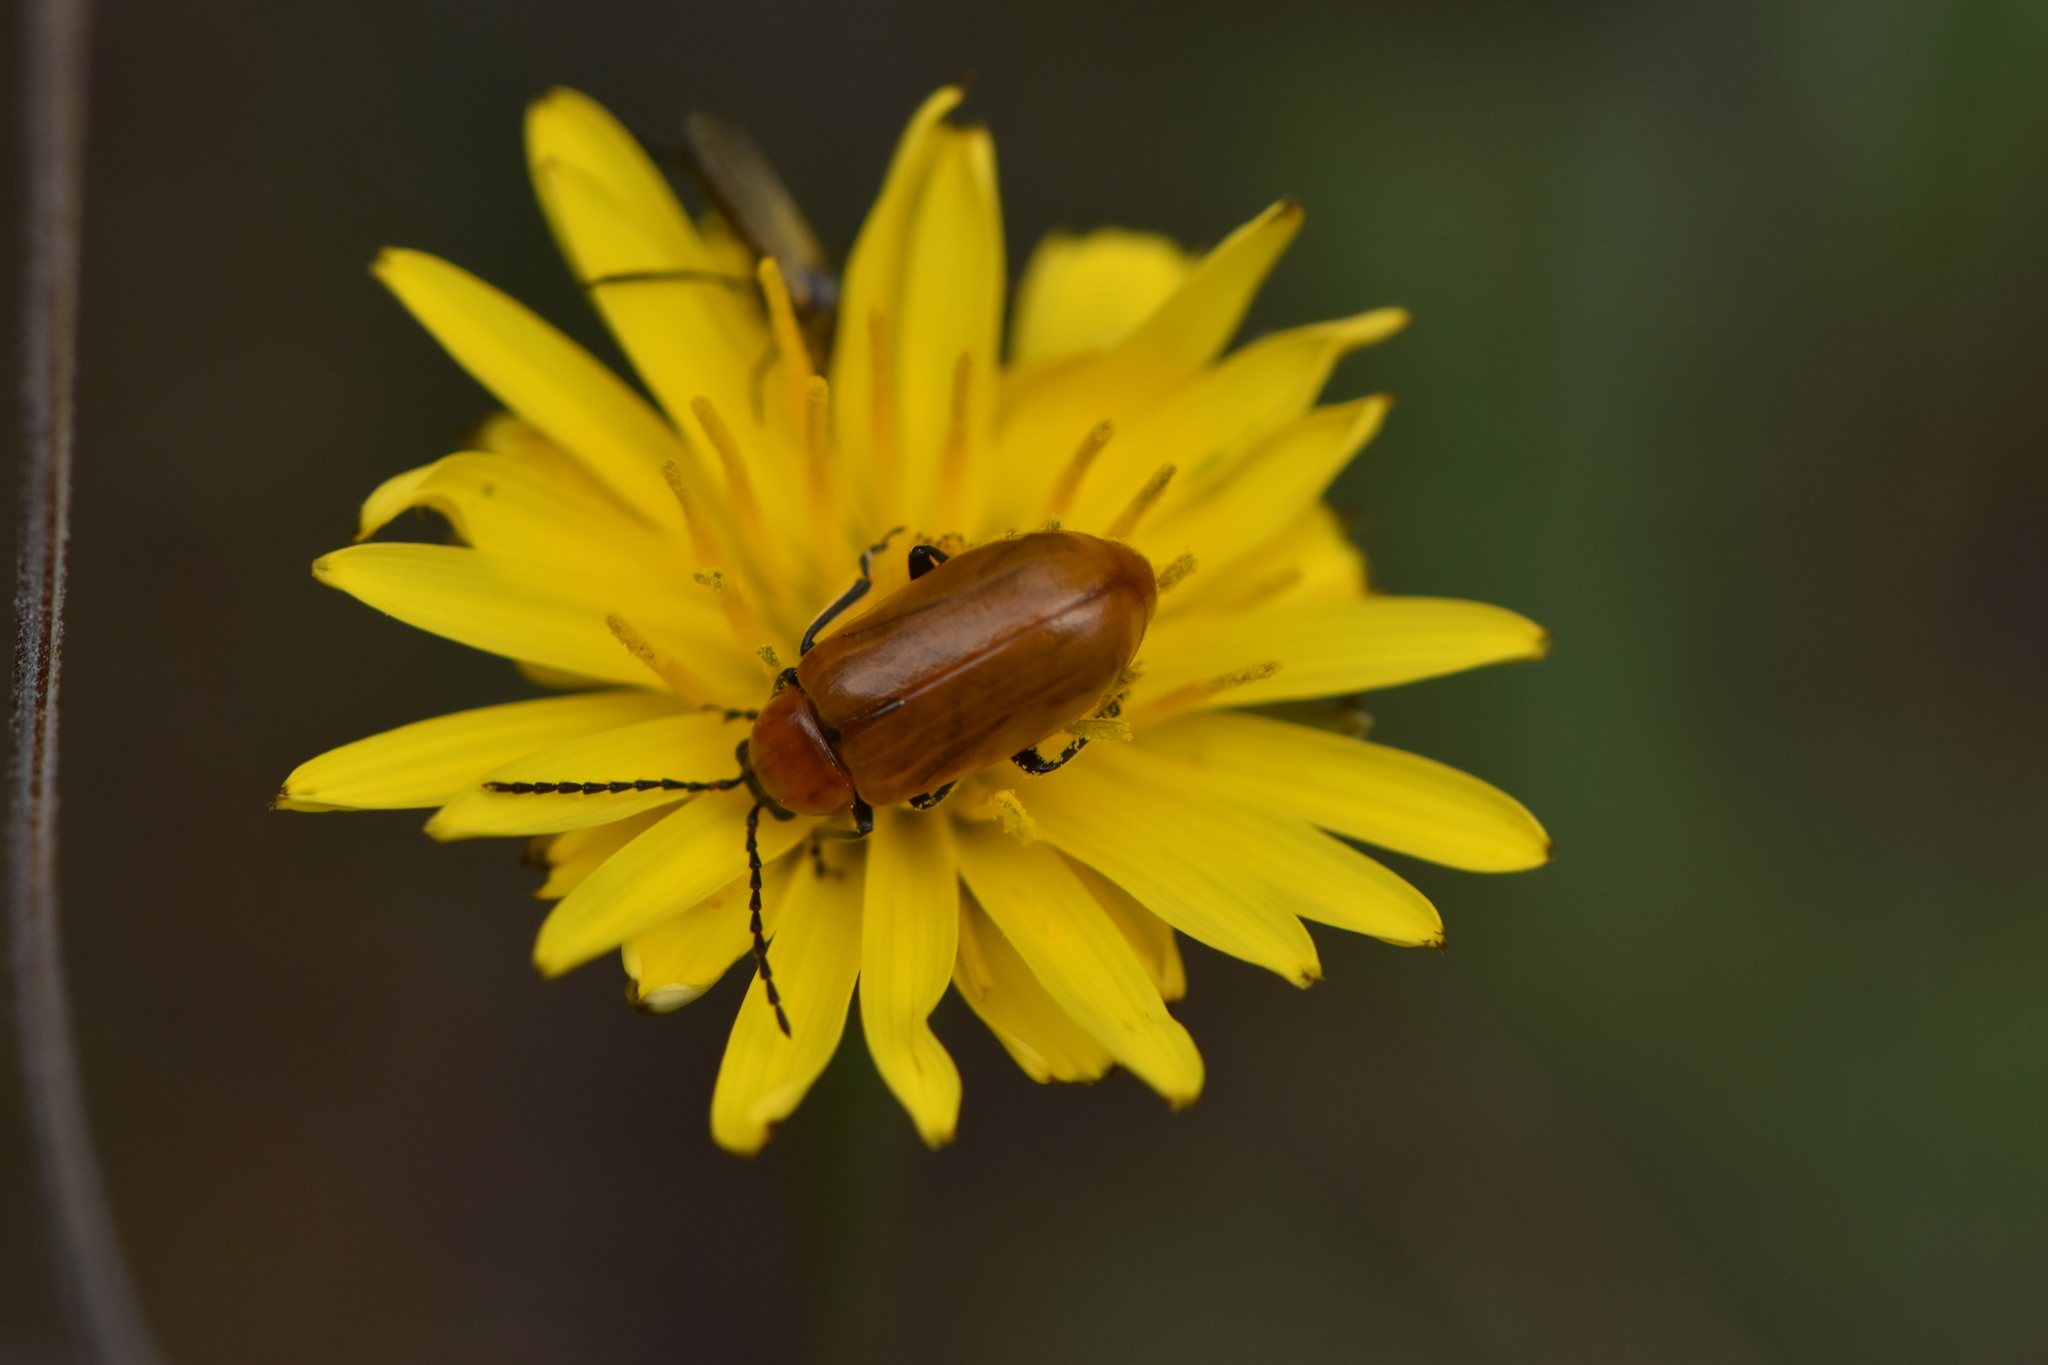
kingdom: Animalia
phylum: Arthropoda
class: Insecta
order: Coleoptera
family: Chrysomelidae
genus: Exosoma
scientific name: Exosoma lusitanicum
